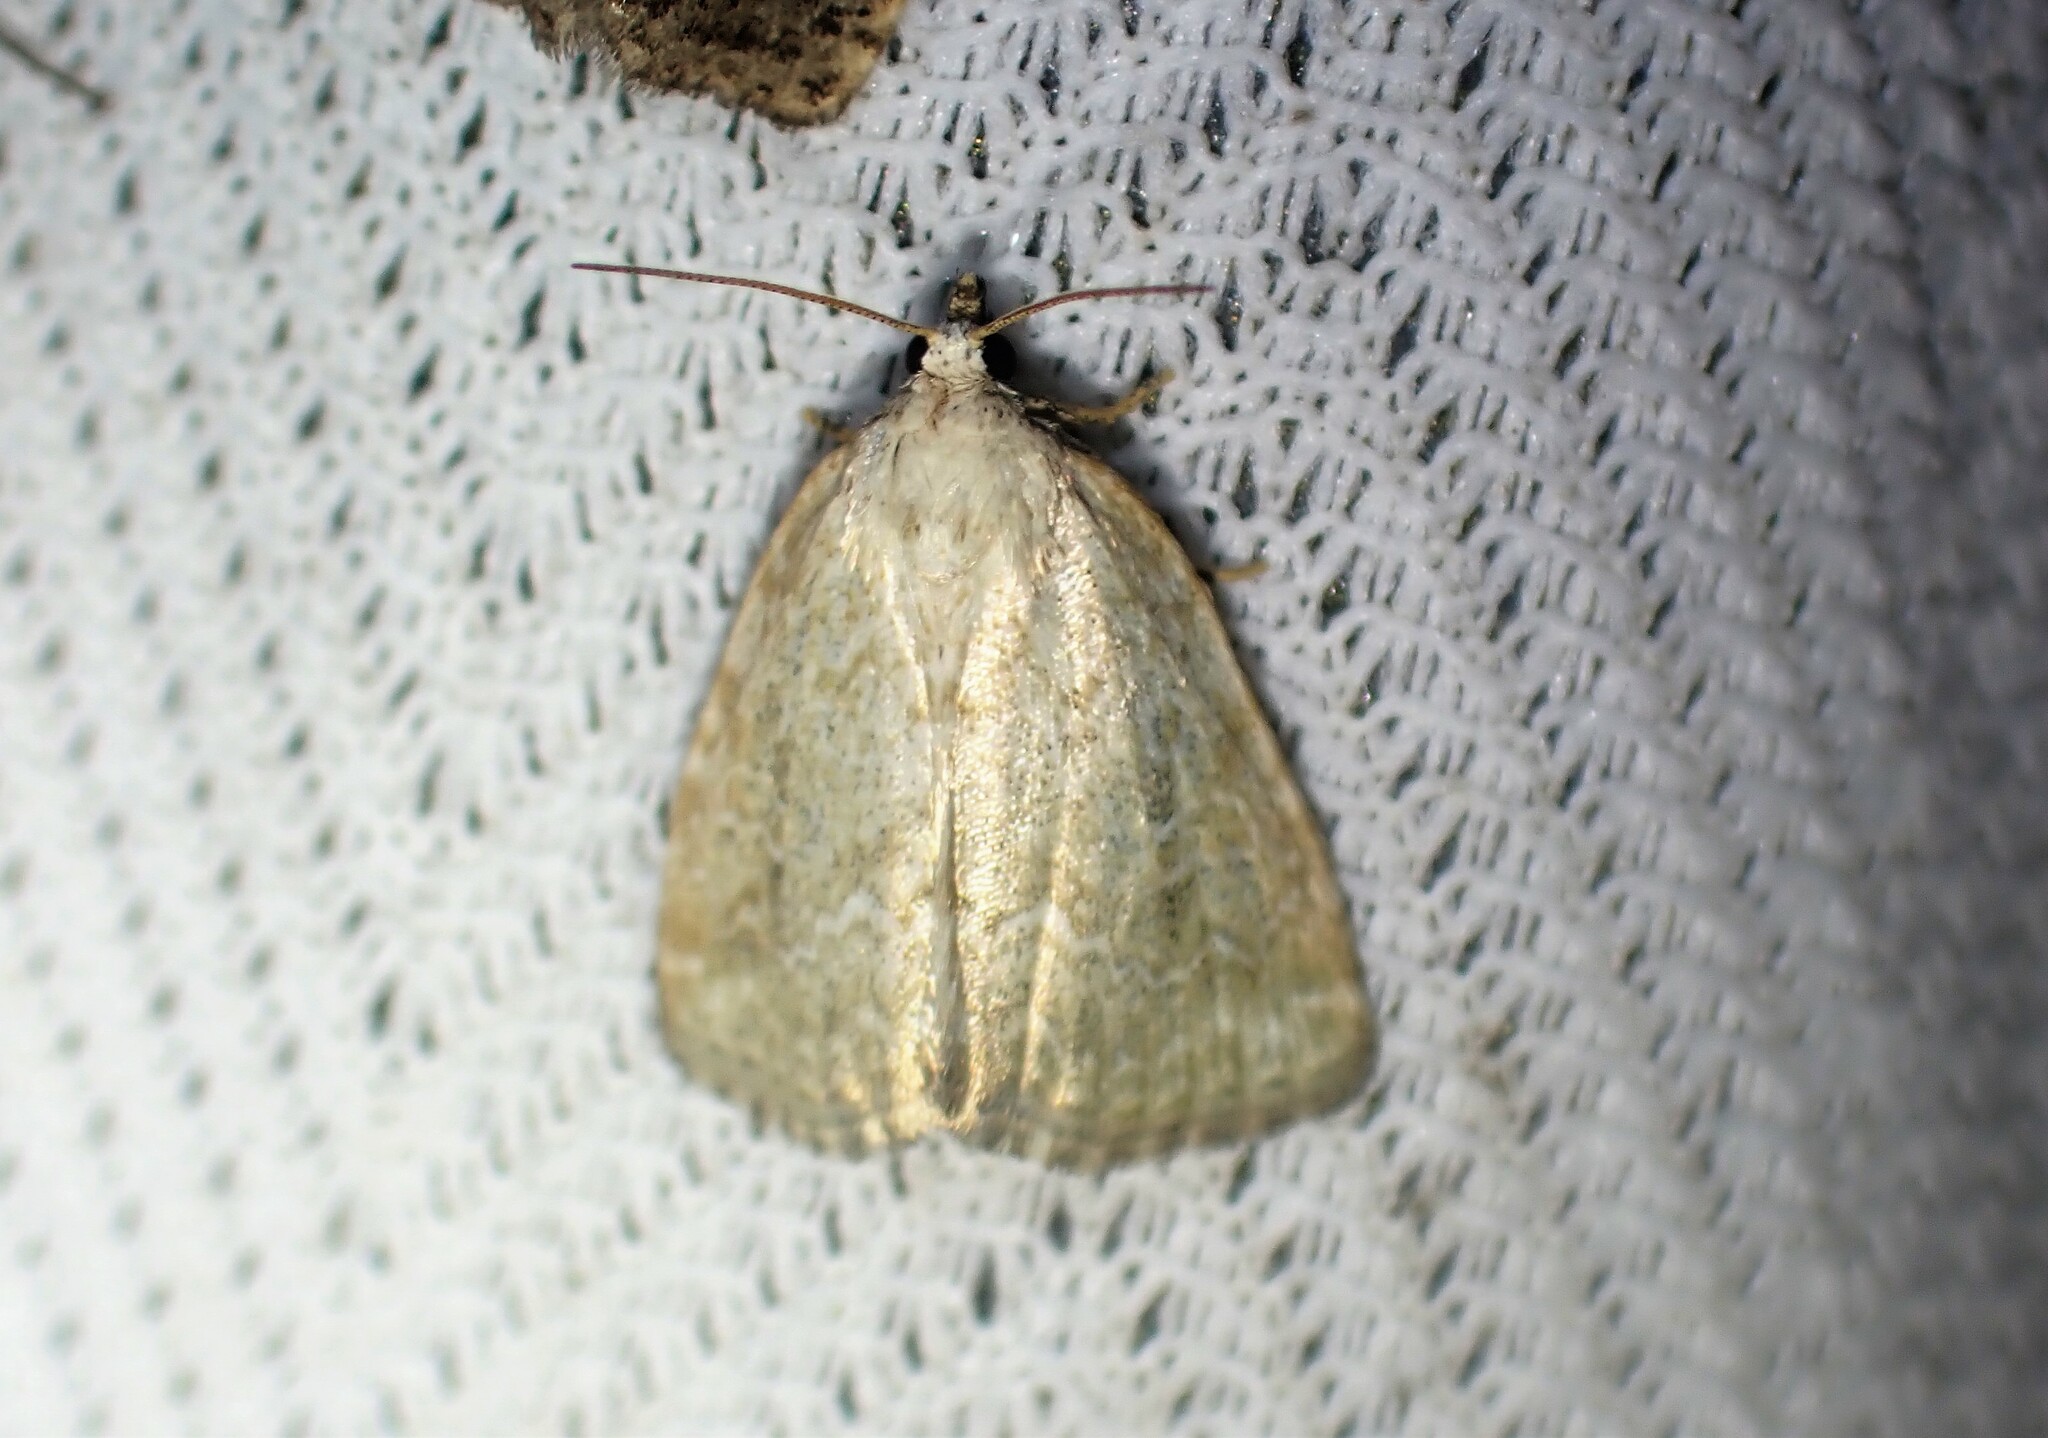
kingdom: Animalia
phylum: Arthropoda
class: Insecta
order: Lepidoptera
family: Noctuidae
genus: Protodeltote
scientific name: Protodeltote albidula
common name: Pale glyph
